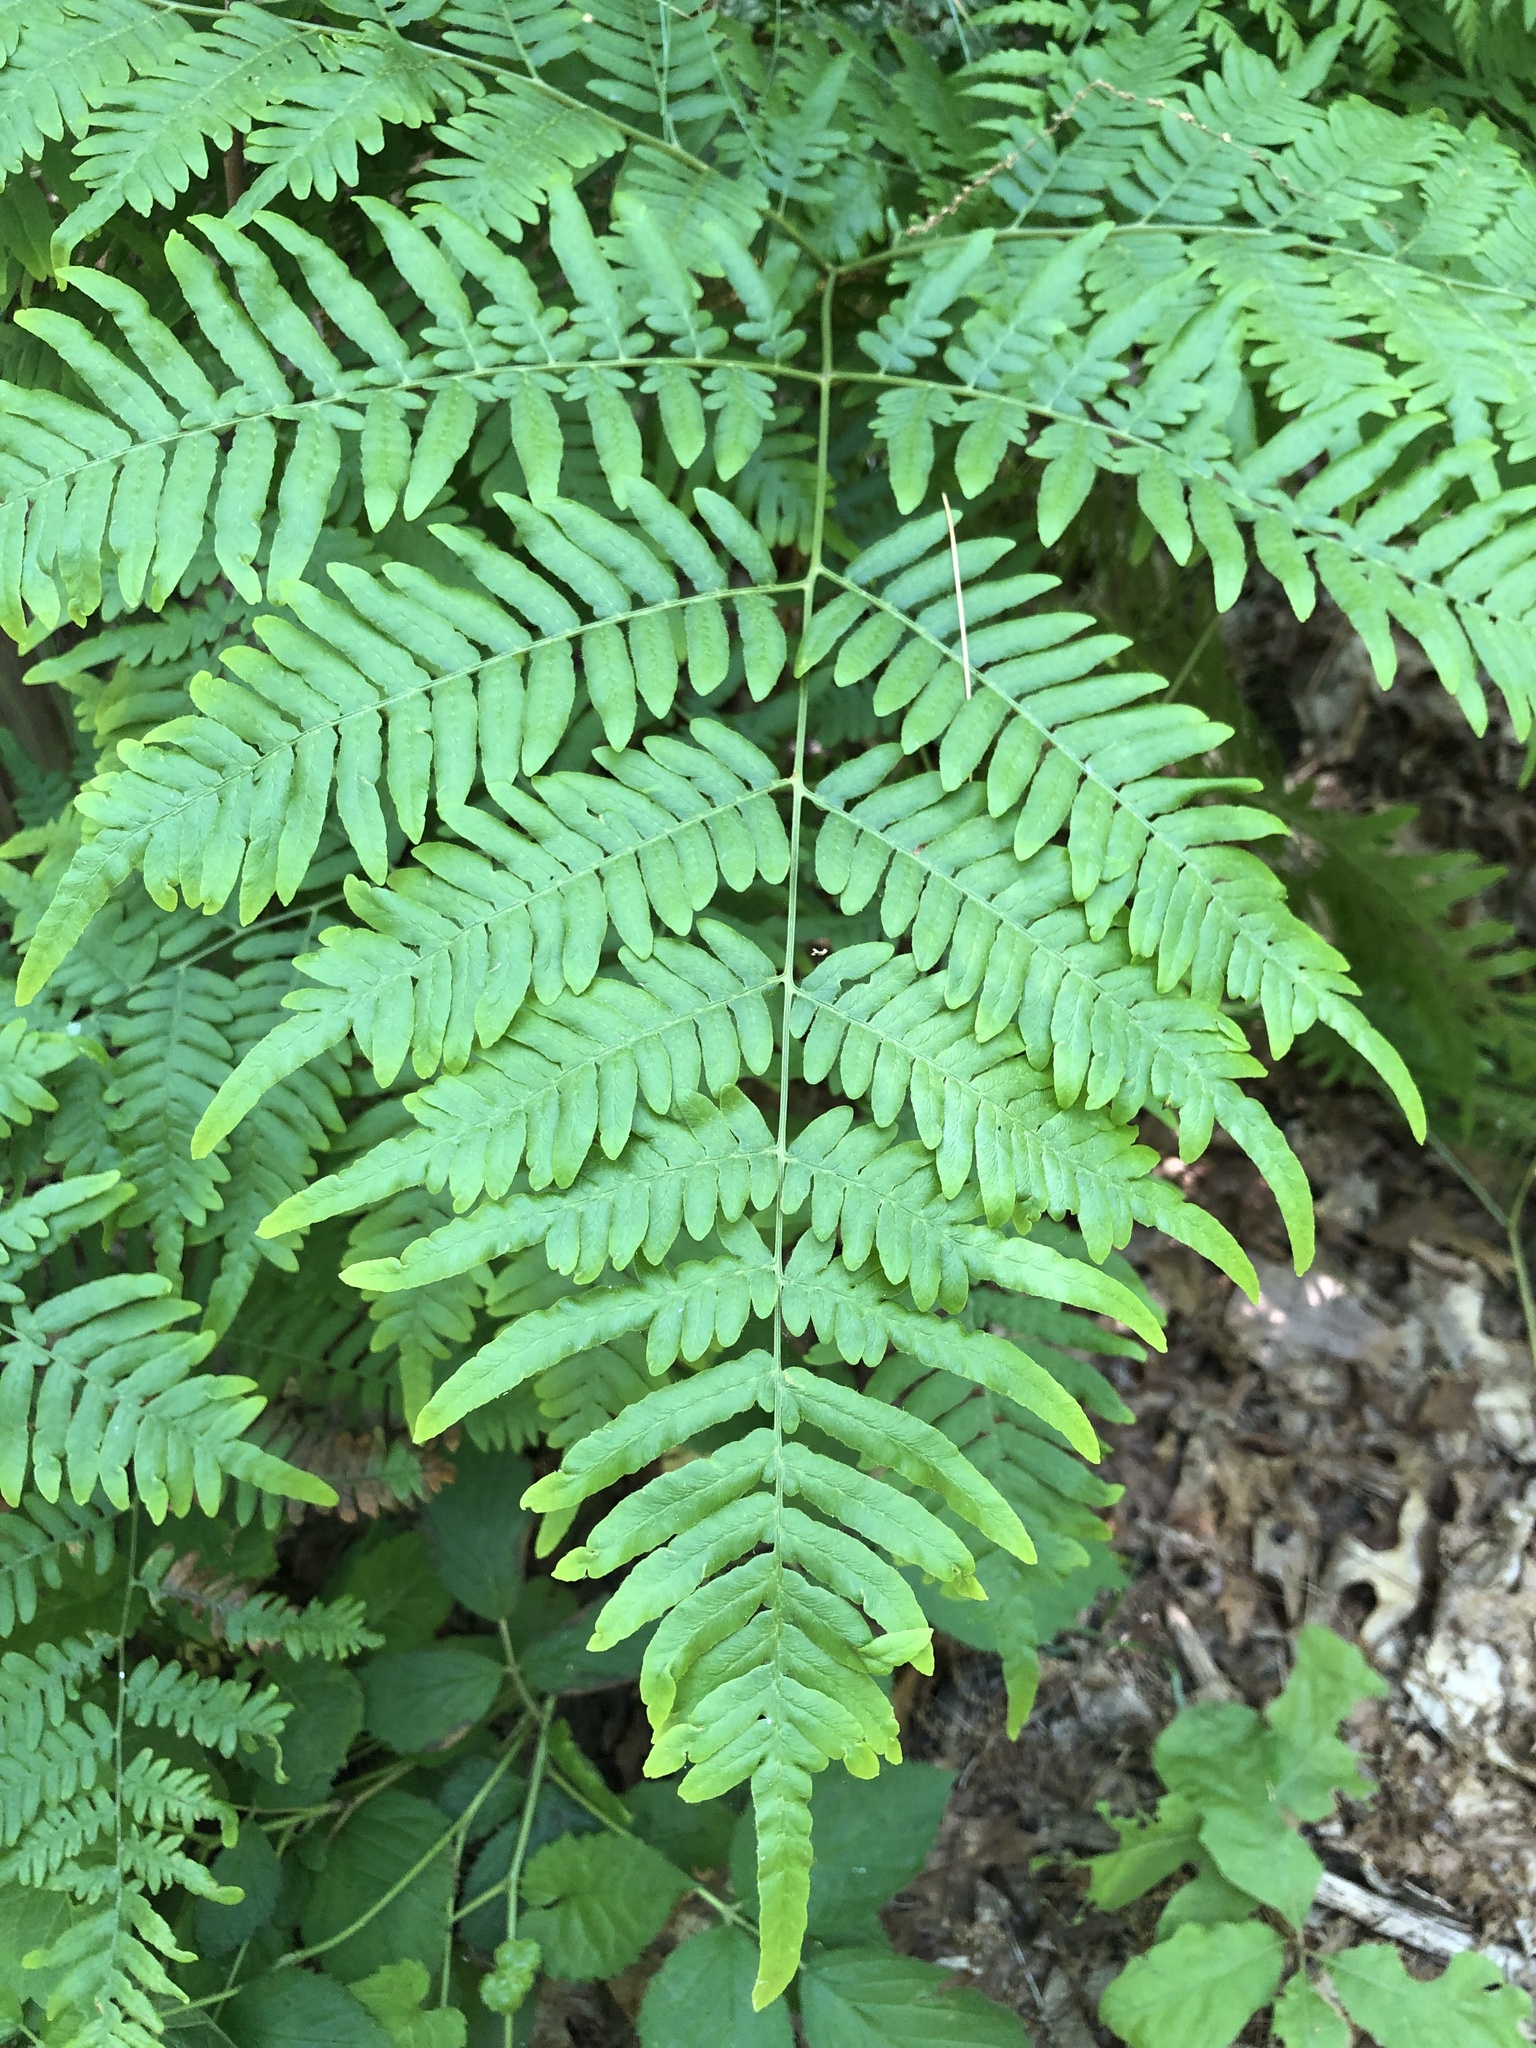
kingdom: Plantae
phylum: Tracheophyta
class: Polypodiopsida
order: Polypodiales
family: Dennstaedtiaceae
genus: Pteridium
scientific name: Pteridium aquilinum
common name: Bracken
